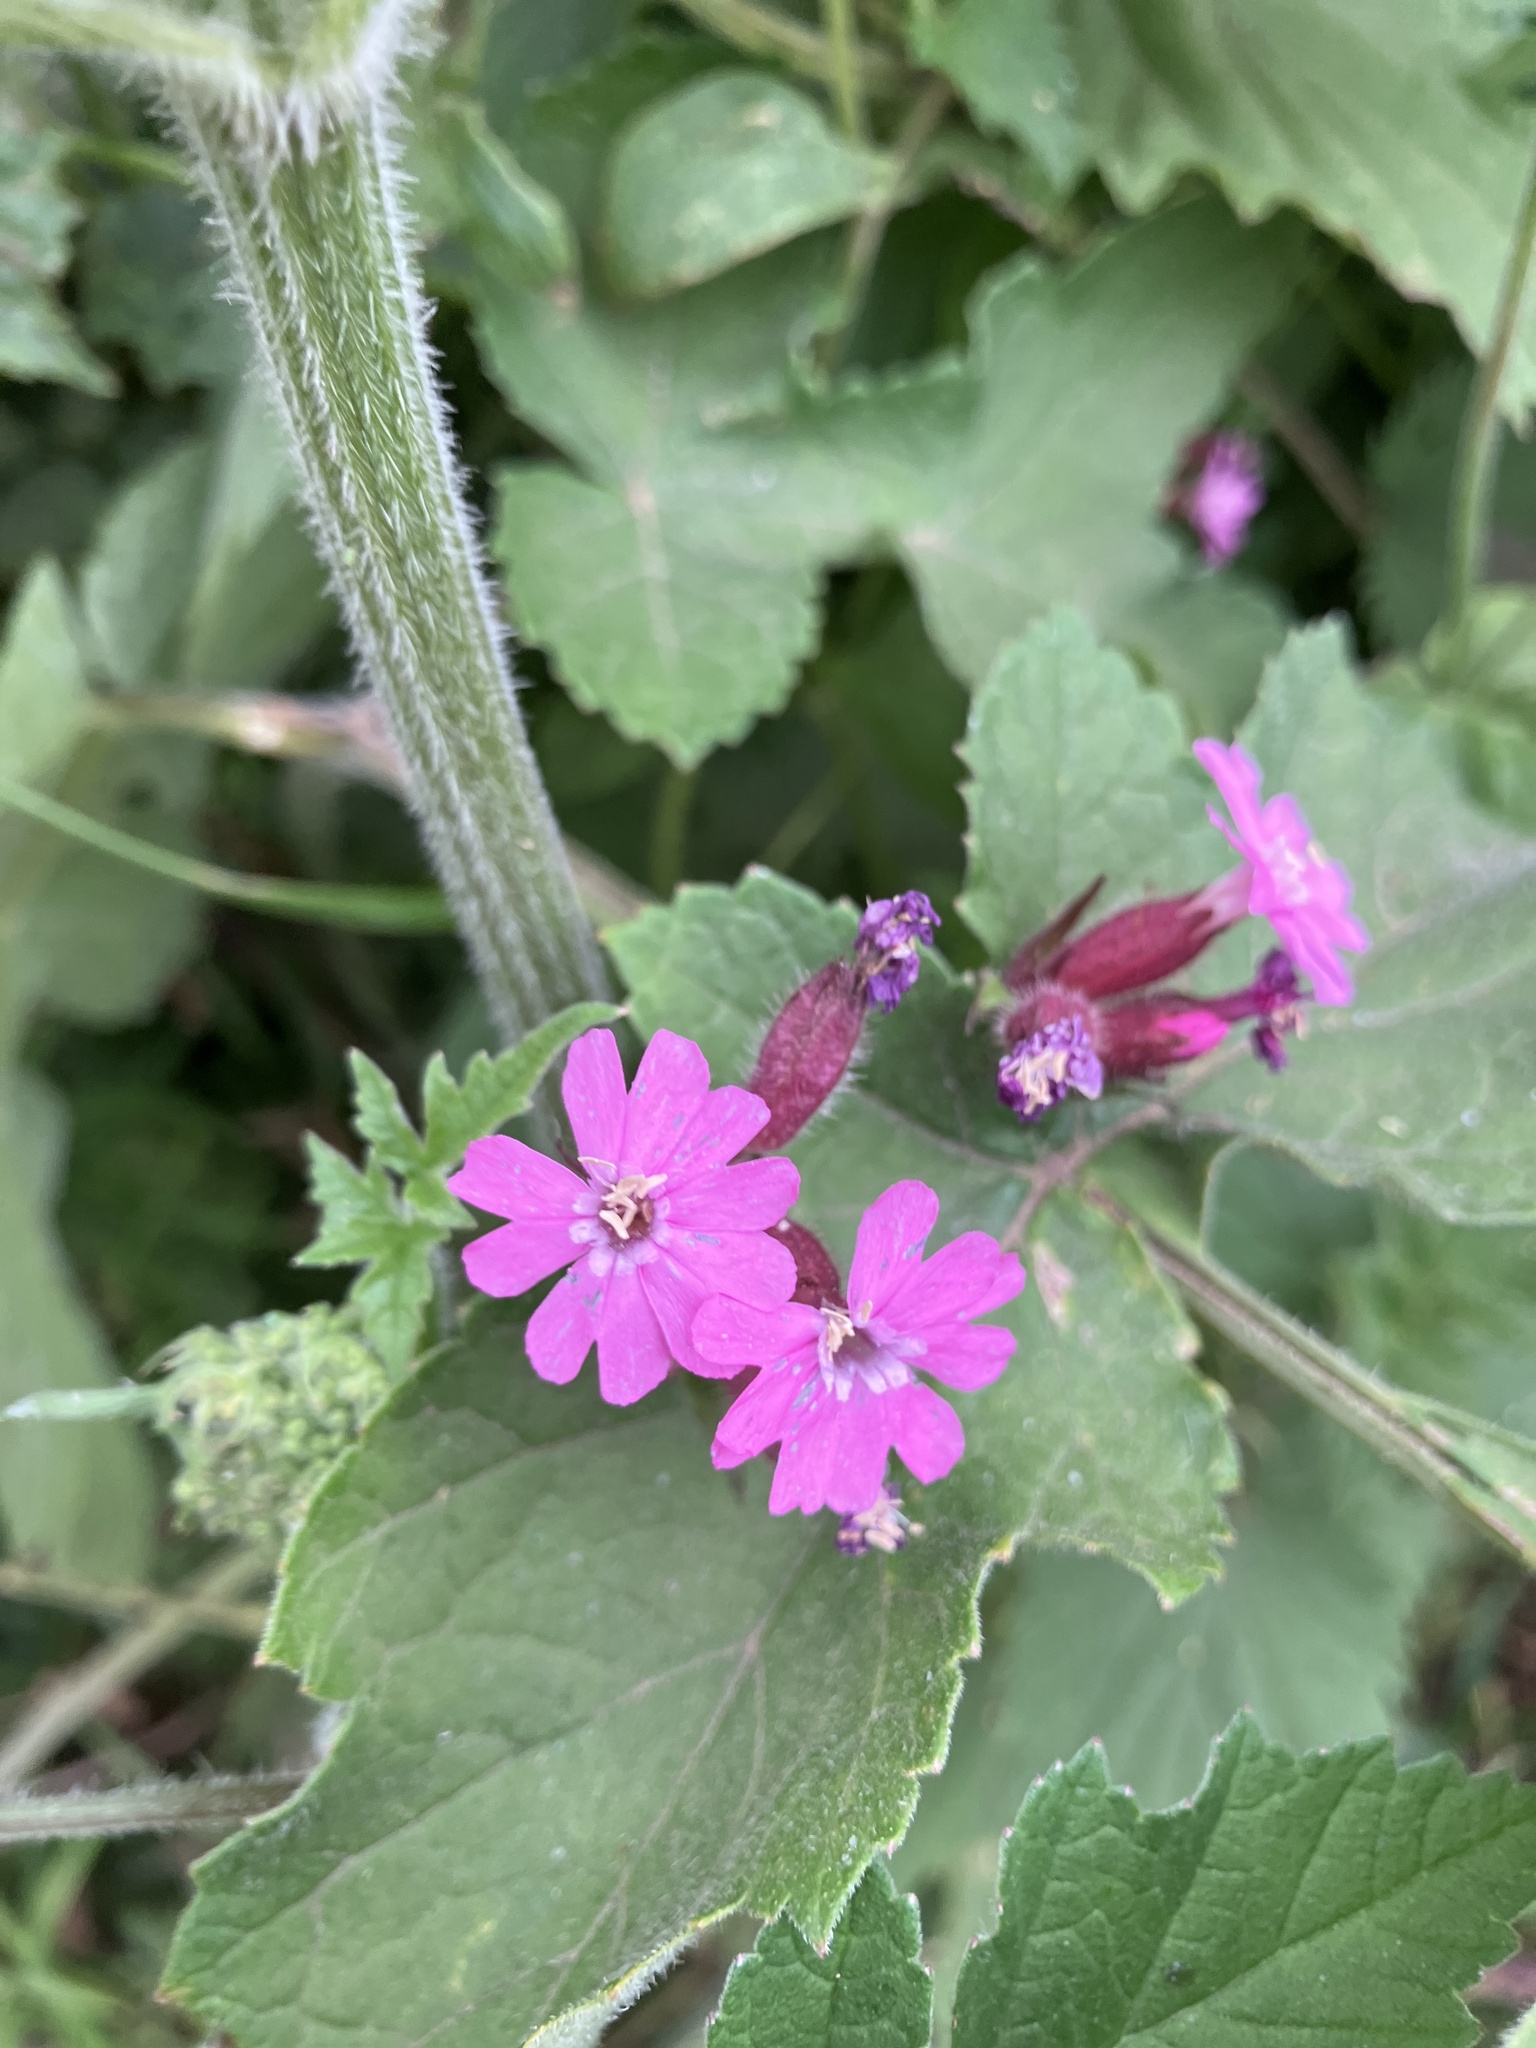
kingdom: Plantae
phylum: Tracheophyta
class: Magnoliopsida
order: Caryophyllales
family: Caryophyllaceae
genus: Silene
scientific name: Silene dioica
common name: Red campion
